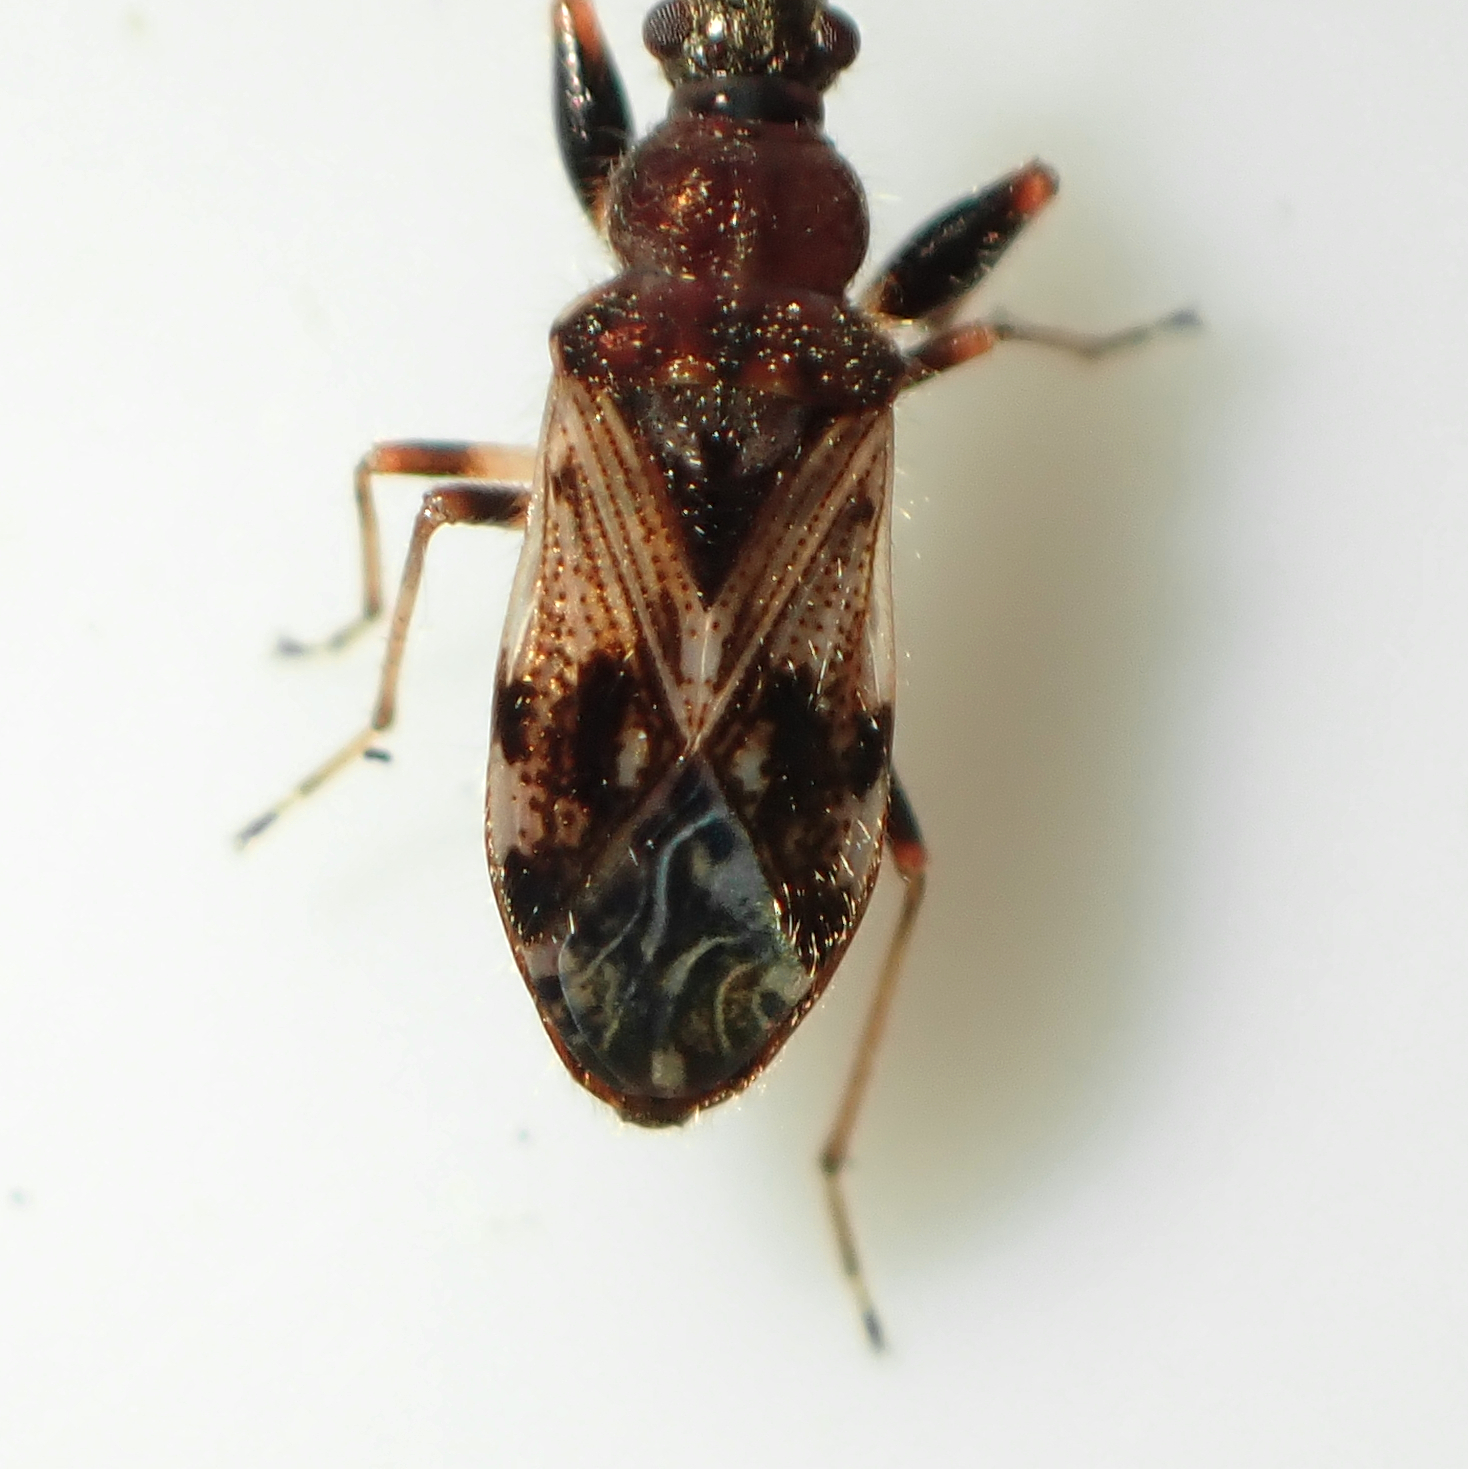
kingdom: Animalia
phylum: Arthropoda
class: Insecta
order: Hemiptera
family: Rhyparochromidae
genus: Remaudiereana
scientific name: Remaudiereana inornatus
